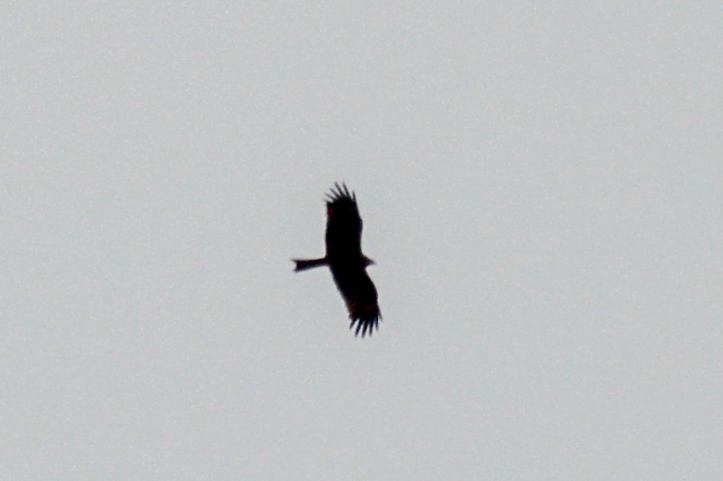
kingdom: Animalia
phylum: Chordata
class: Aves
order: Accipitriformes
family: Accipitridae
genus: Milvus
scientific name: Milvus migrans
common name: Black kite
